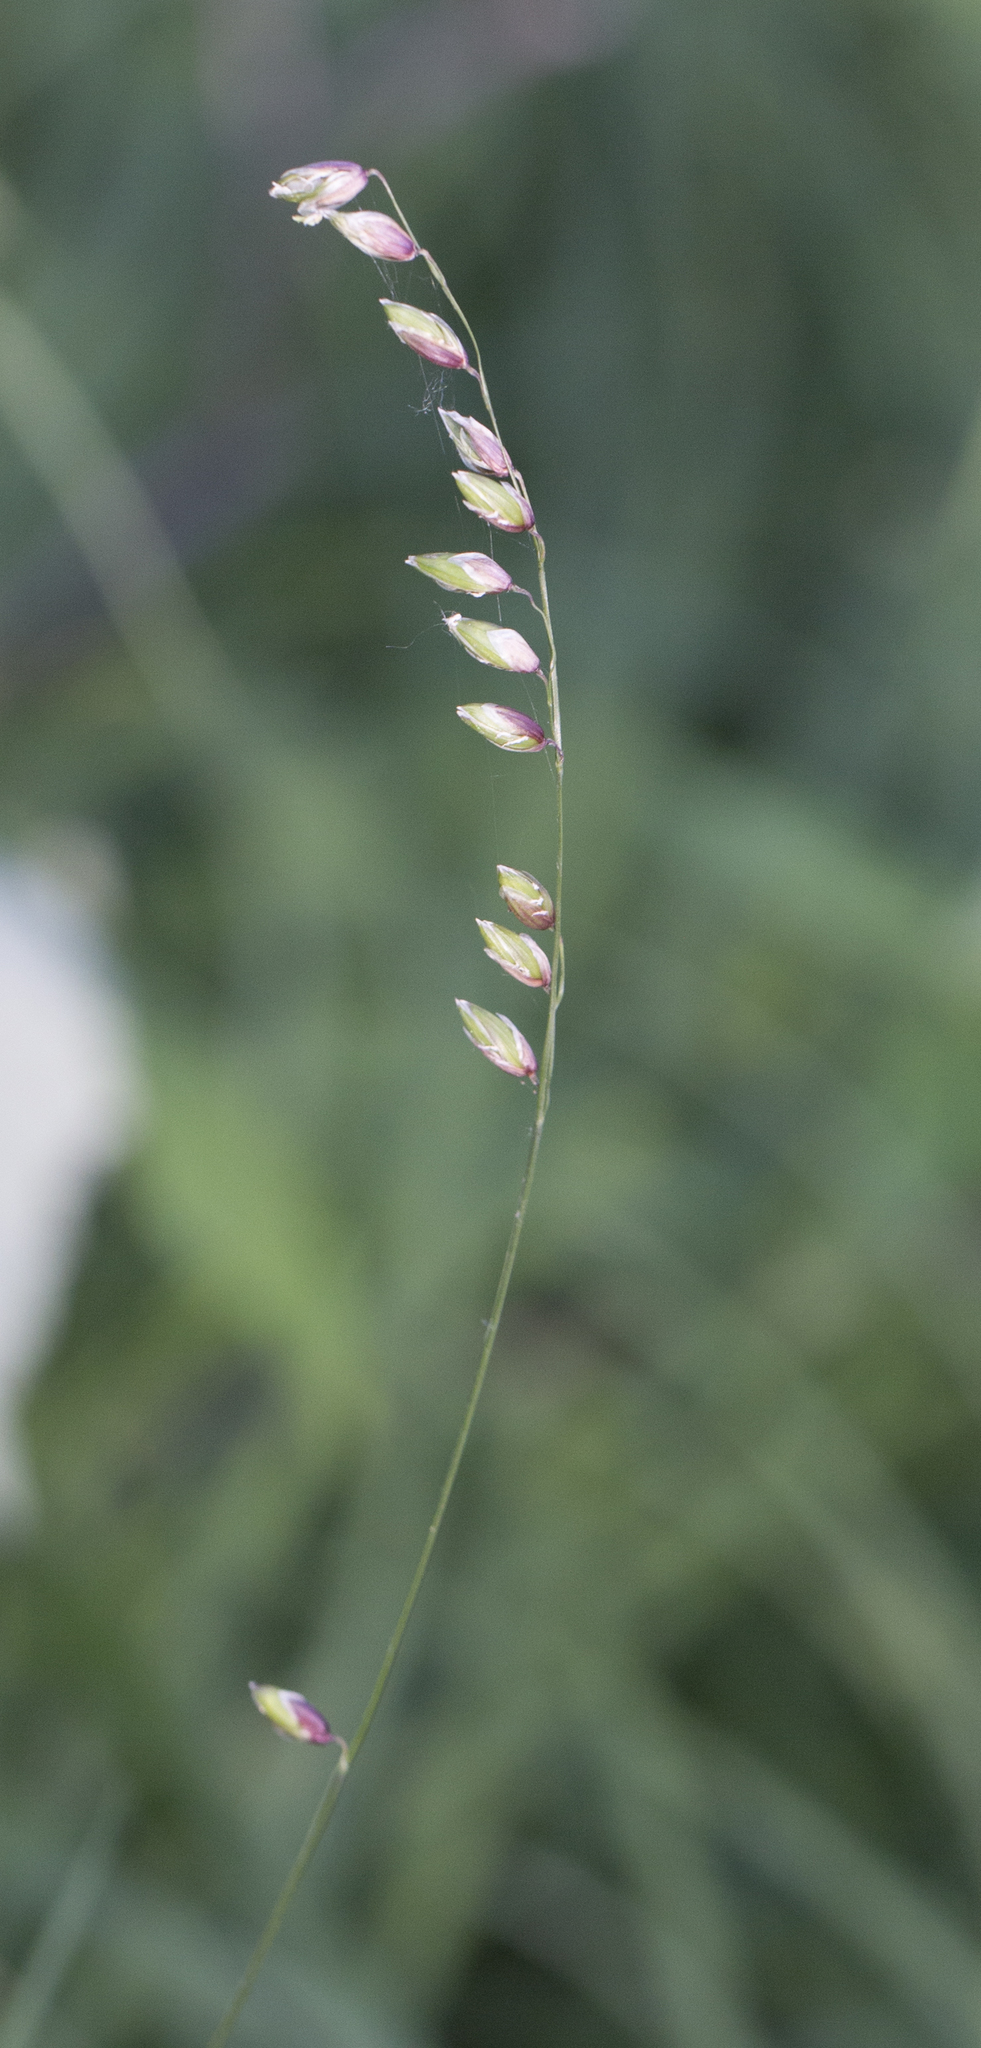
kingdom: Plantae
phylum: Tracheophyta
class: Liliopsida
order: Poales
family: Poaceae
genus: Melica
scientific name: Melica nutans
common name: Mountain melick
